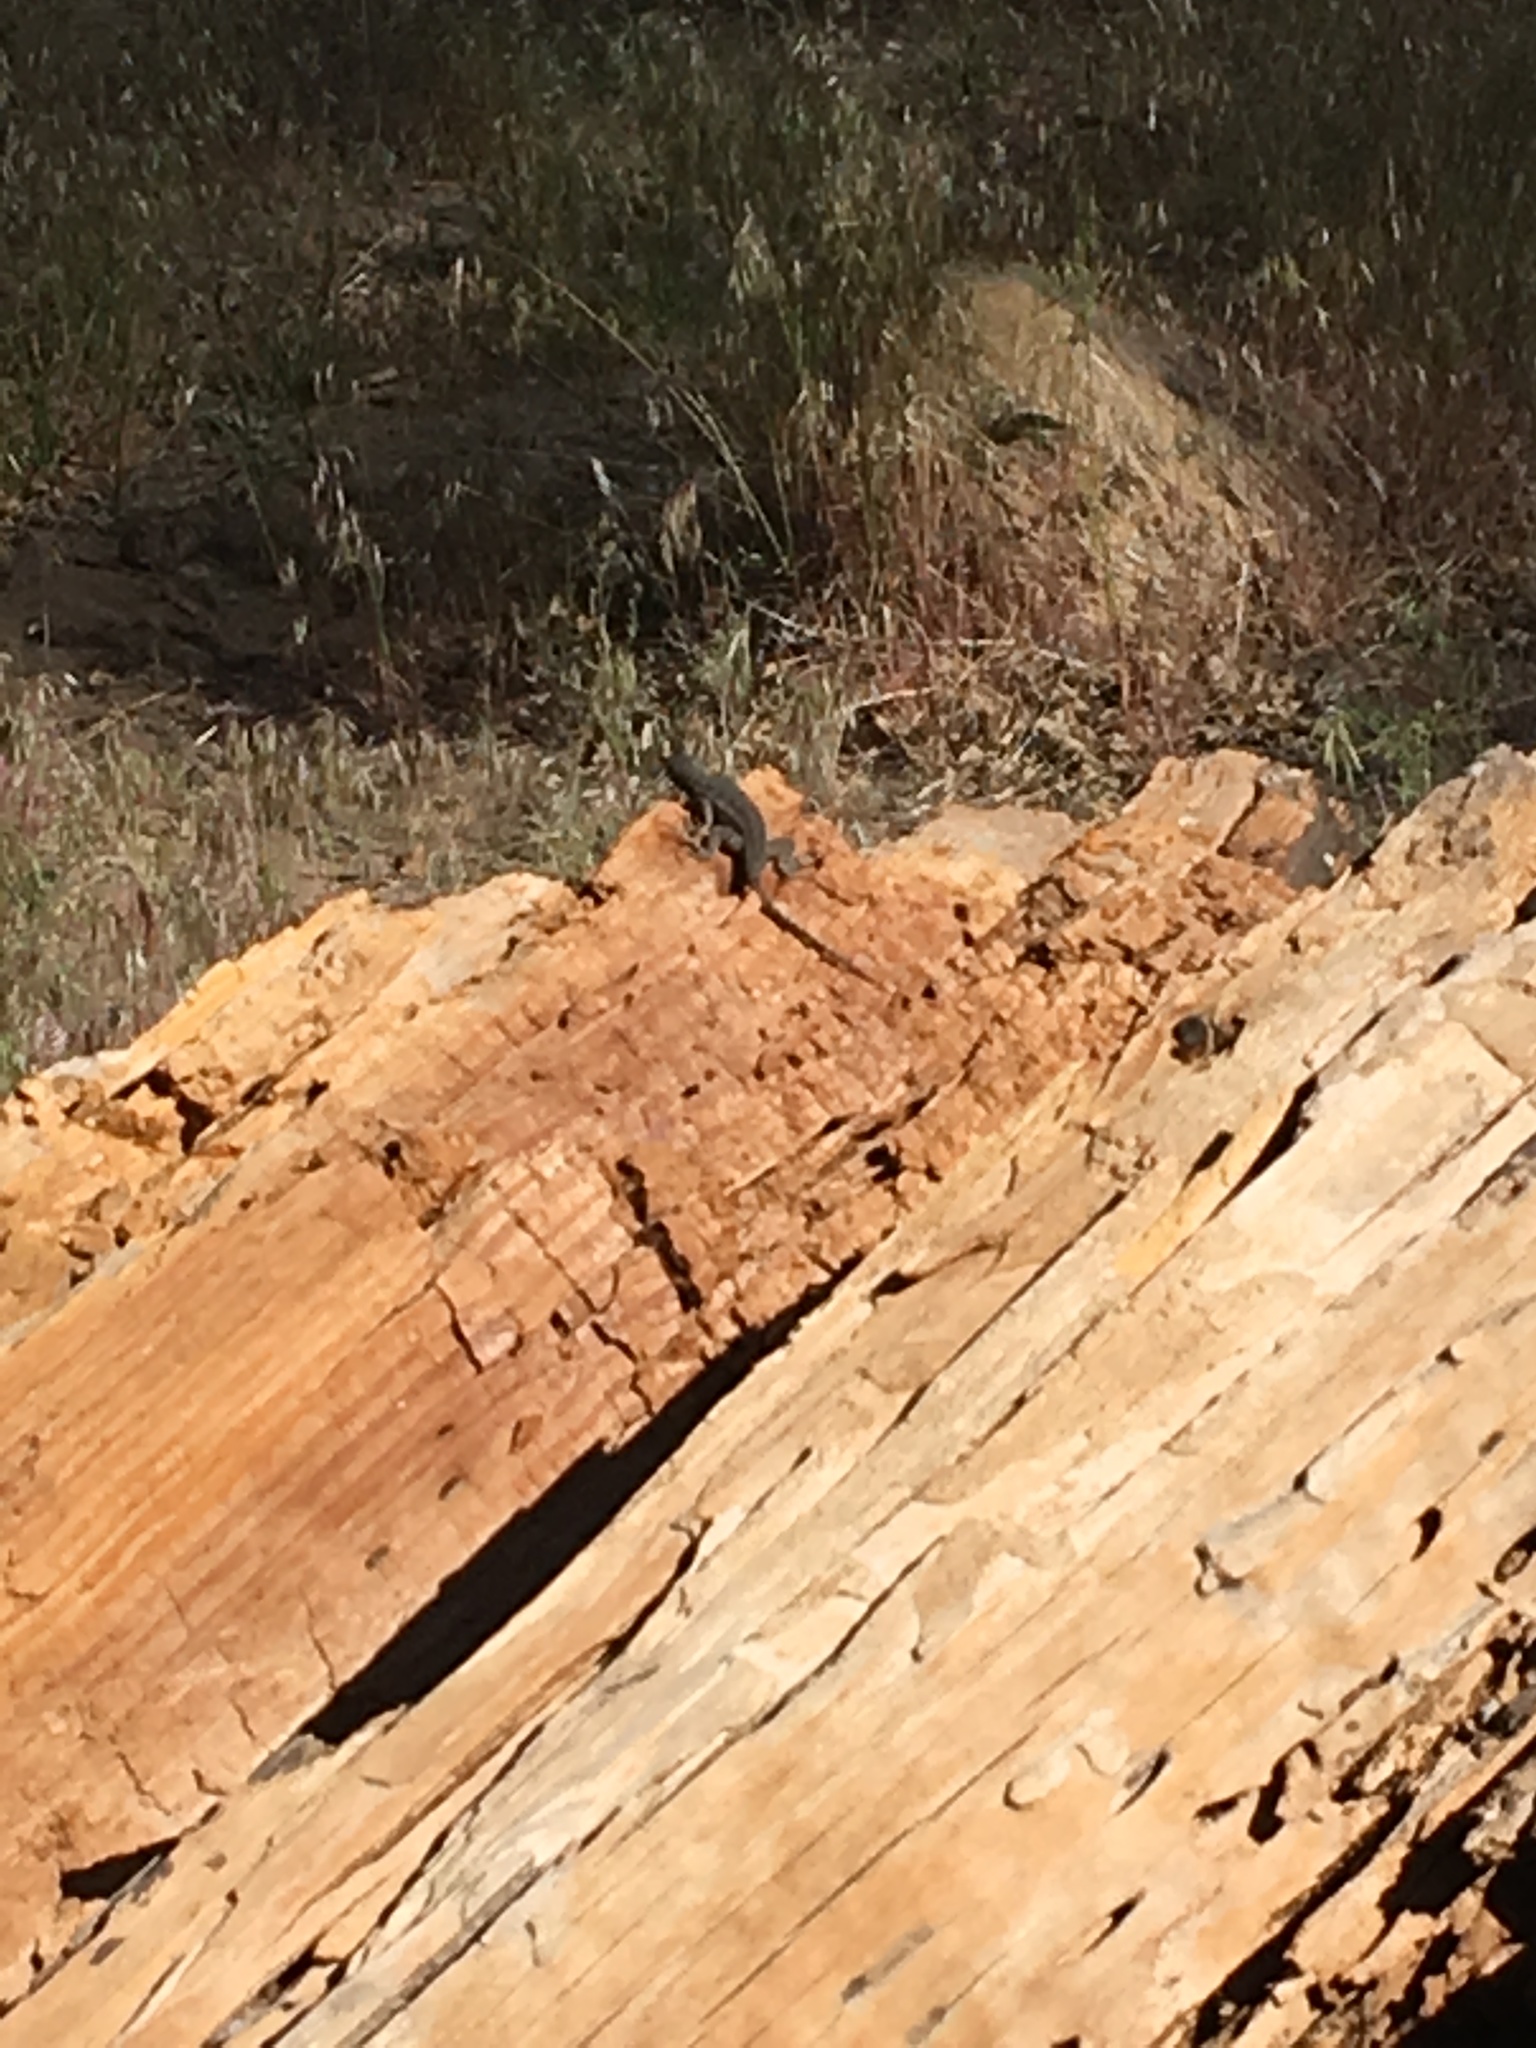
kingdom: Animalia
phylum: Chordata
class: Squamata
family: Phrynosomatidae
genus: Sceloporus
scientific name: Sceloporus graciosus
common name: Sagebrush lizard
